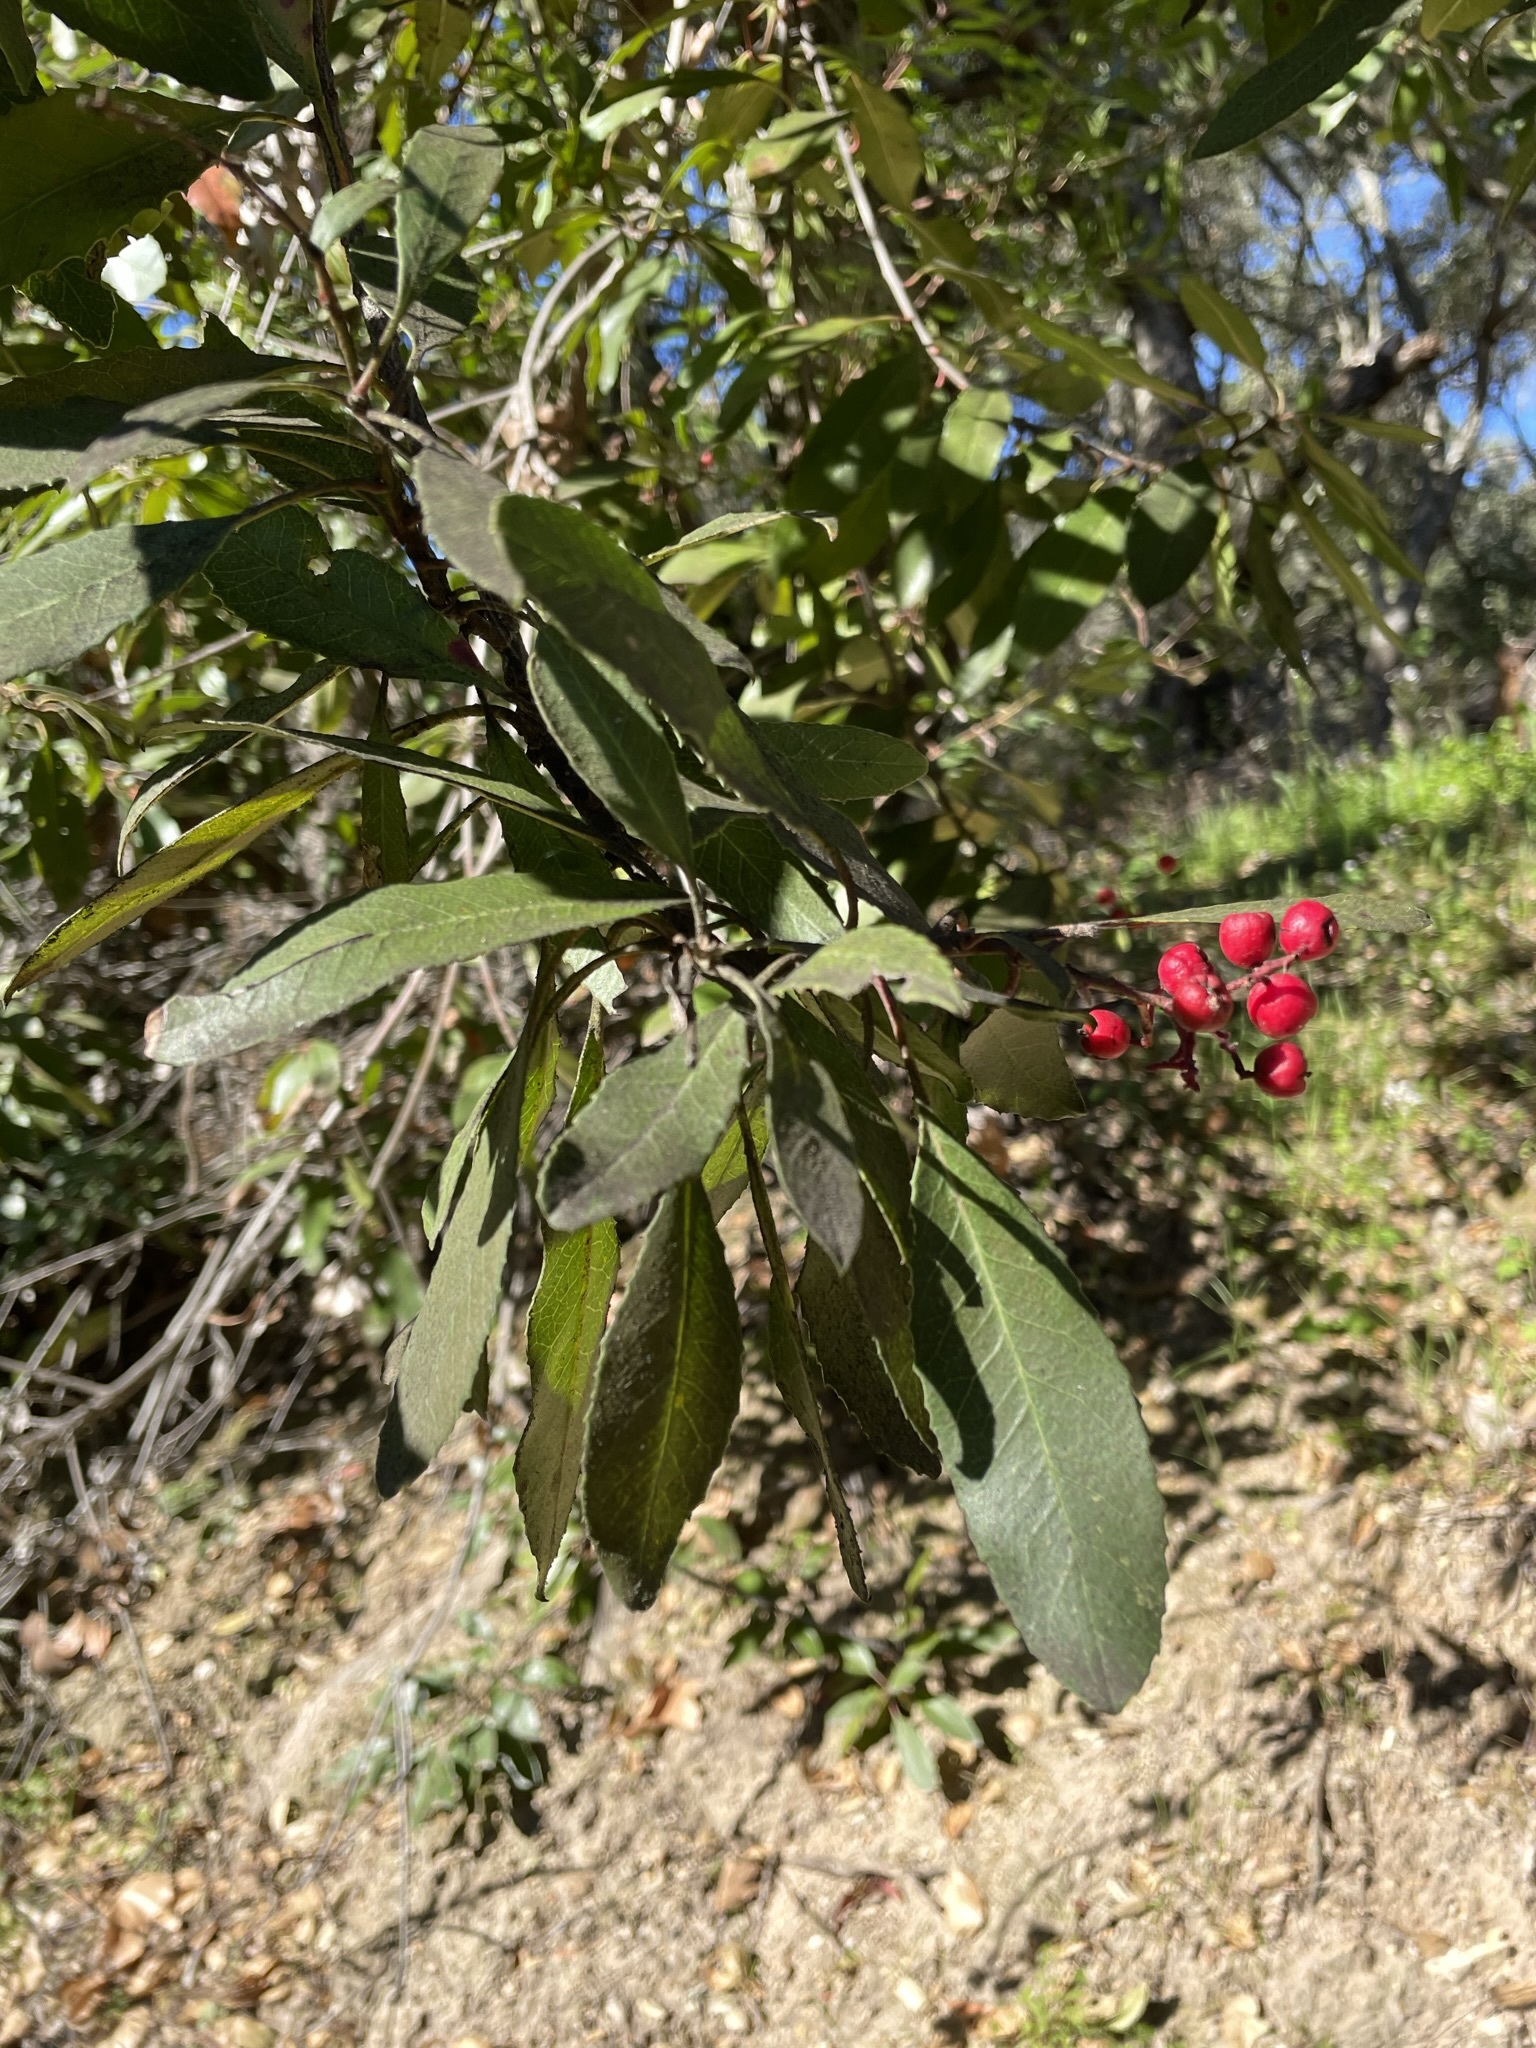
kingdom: Plantae
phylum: Tracheophyta
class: Magnoliopsida
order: Rosales
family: Rosaceae
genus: Heteromeles
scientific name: Heteromeles arbutifolia
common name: California-holly
